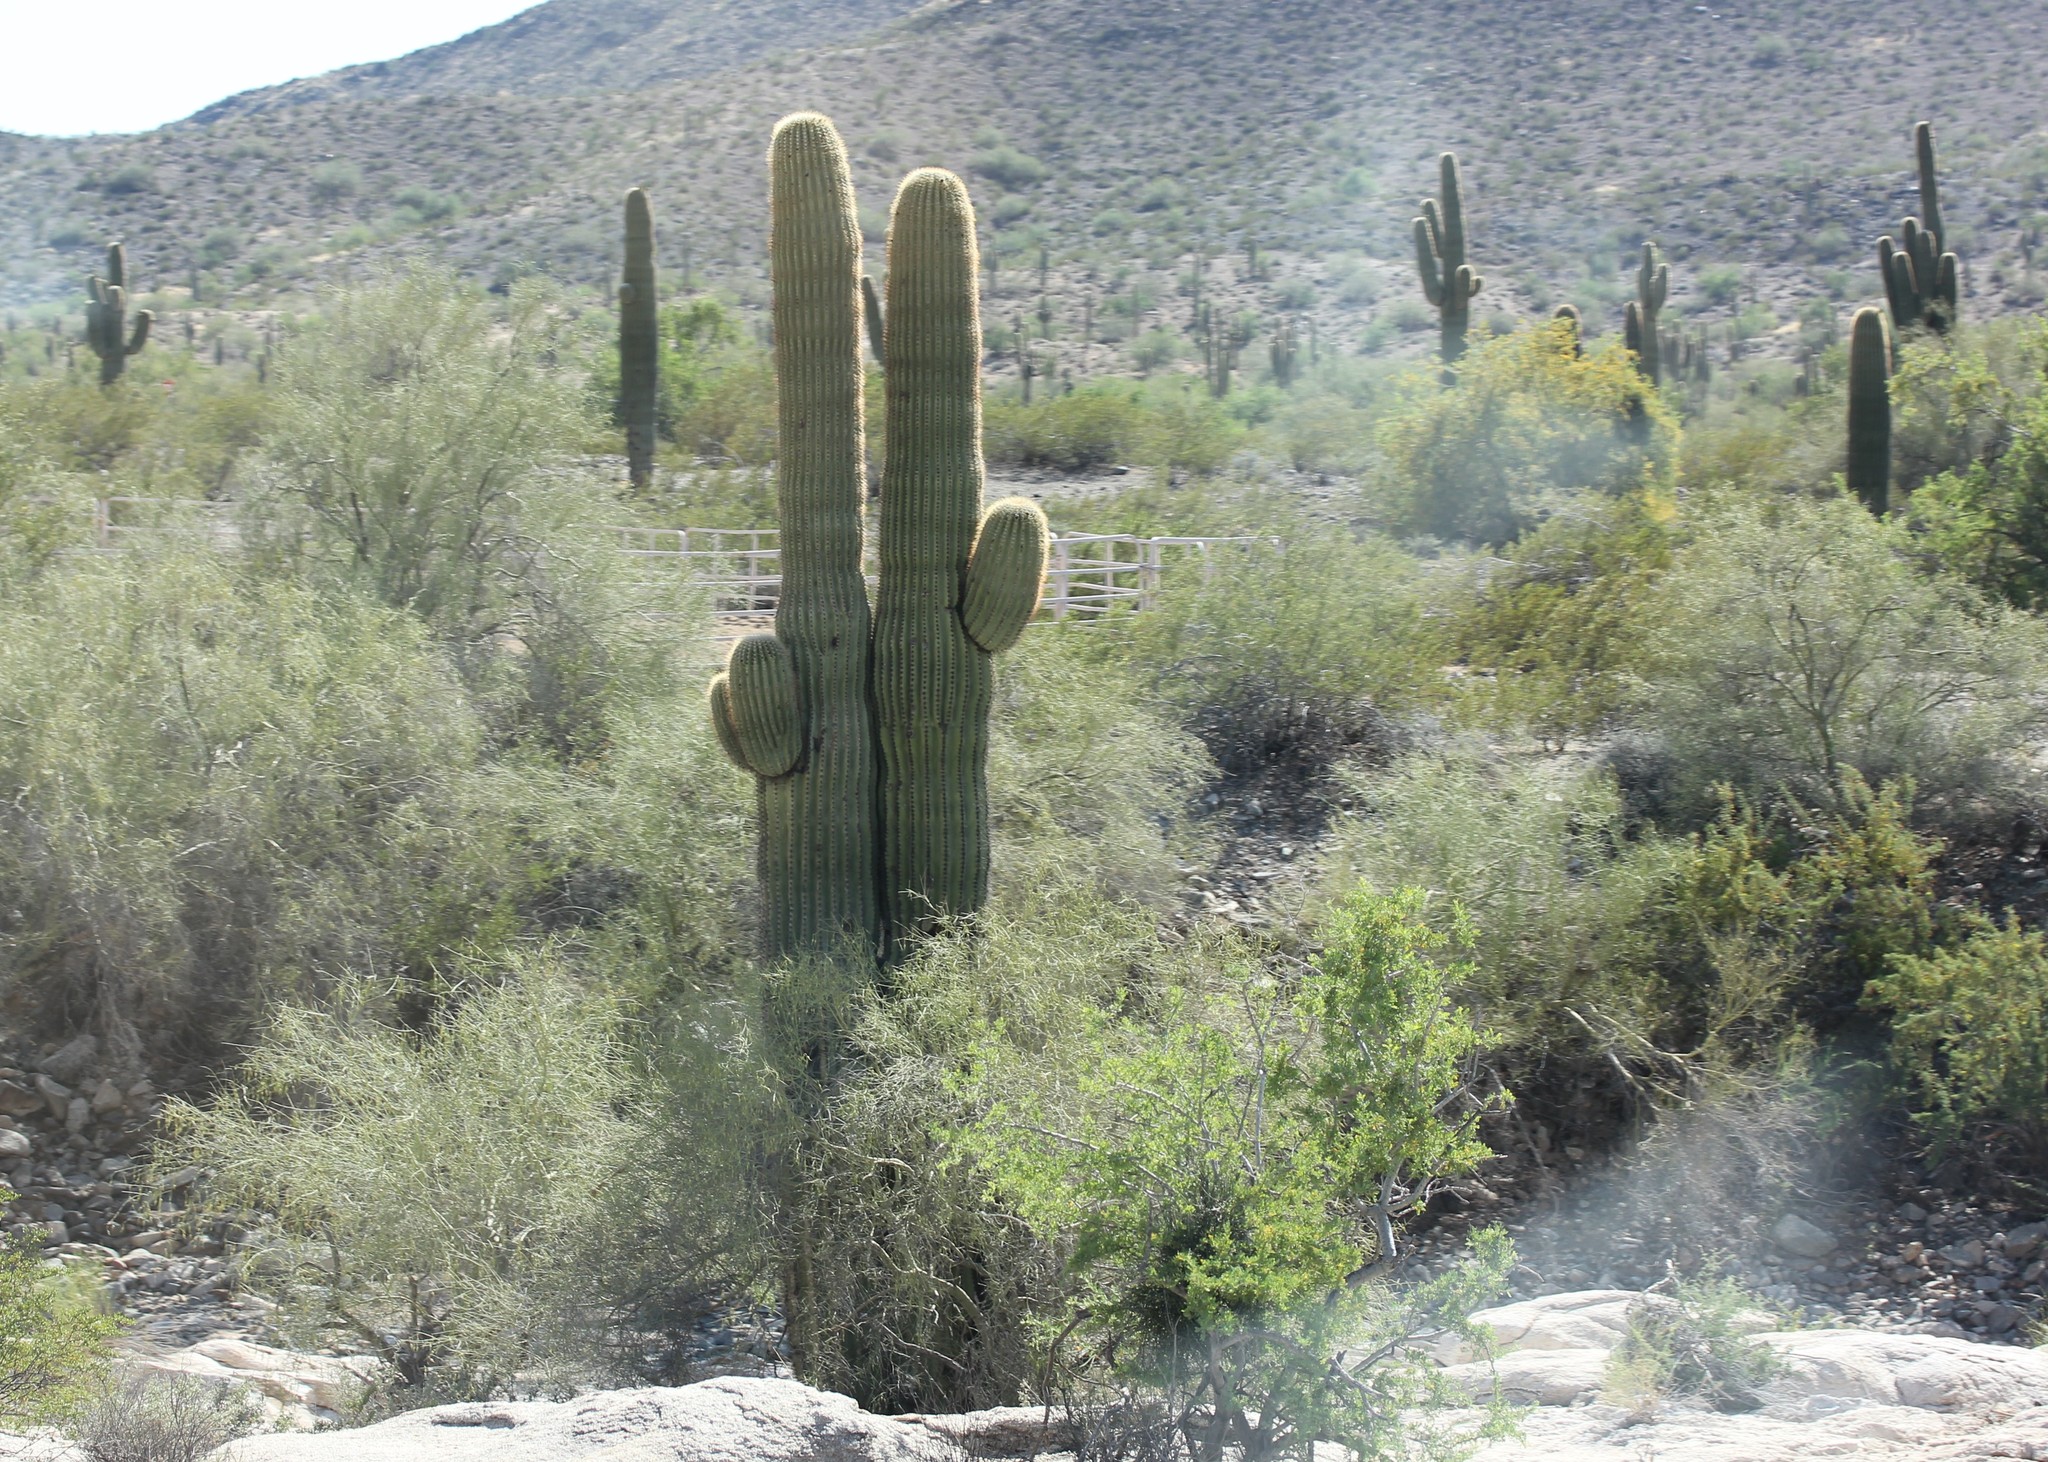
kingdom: Plantae
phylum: Tracheophyta
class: Magnoliopsida
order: Caryophyllales
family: Cactaceae
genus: Carnegiea
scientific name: Carnegiea gigantea
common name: Saguaro
